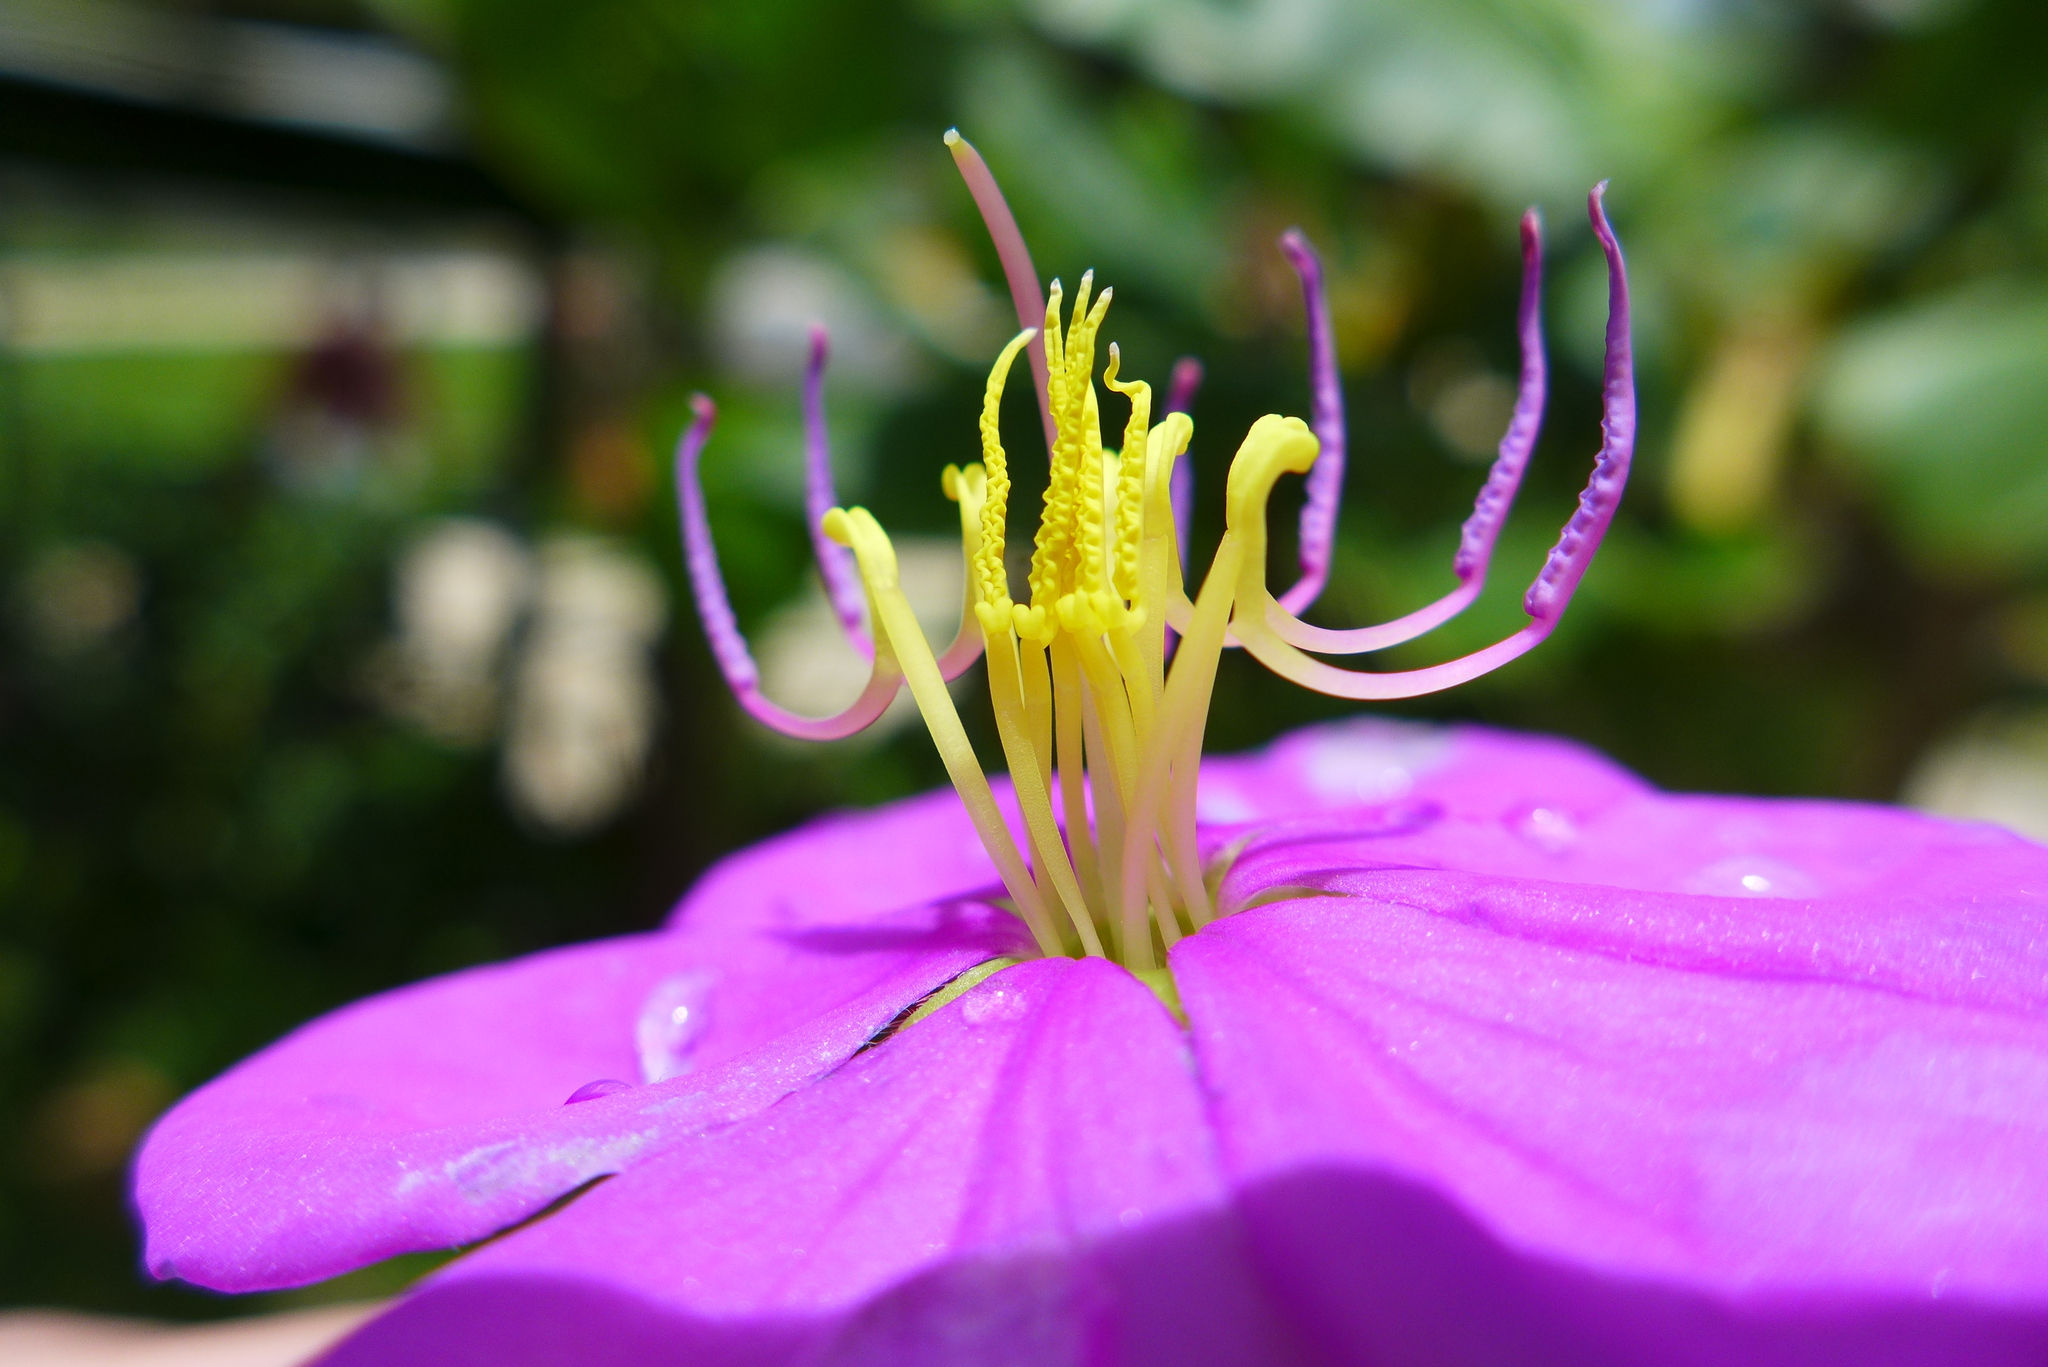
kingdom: Plantae
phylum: Tracheophyta
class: Magnoliopsida
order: Myrtales
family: Melastomataceae
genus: Heterotis
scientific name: Heterotis rotundifolia
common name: Pinklady
